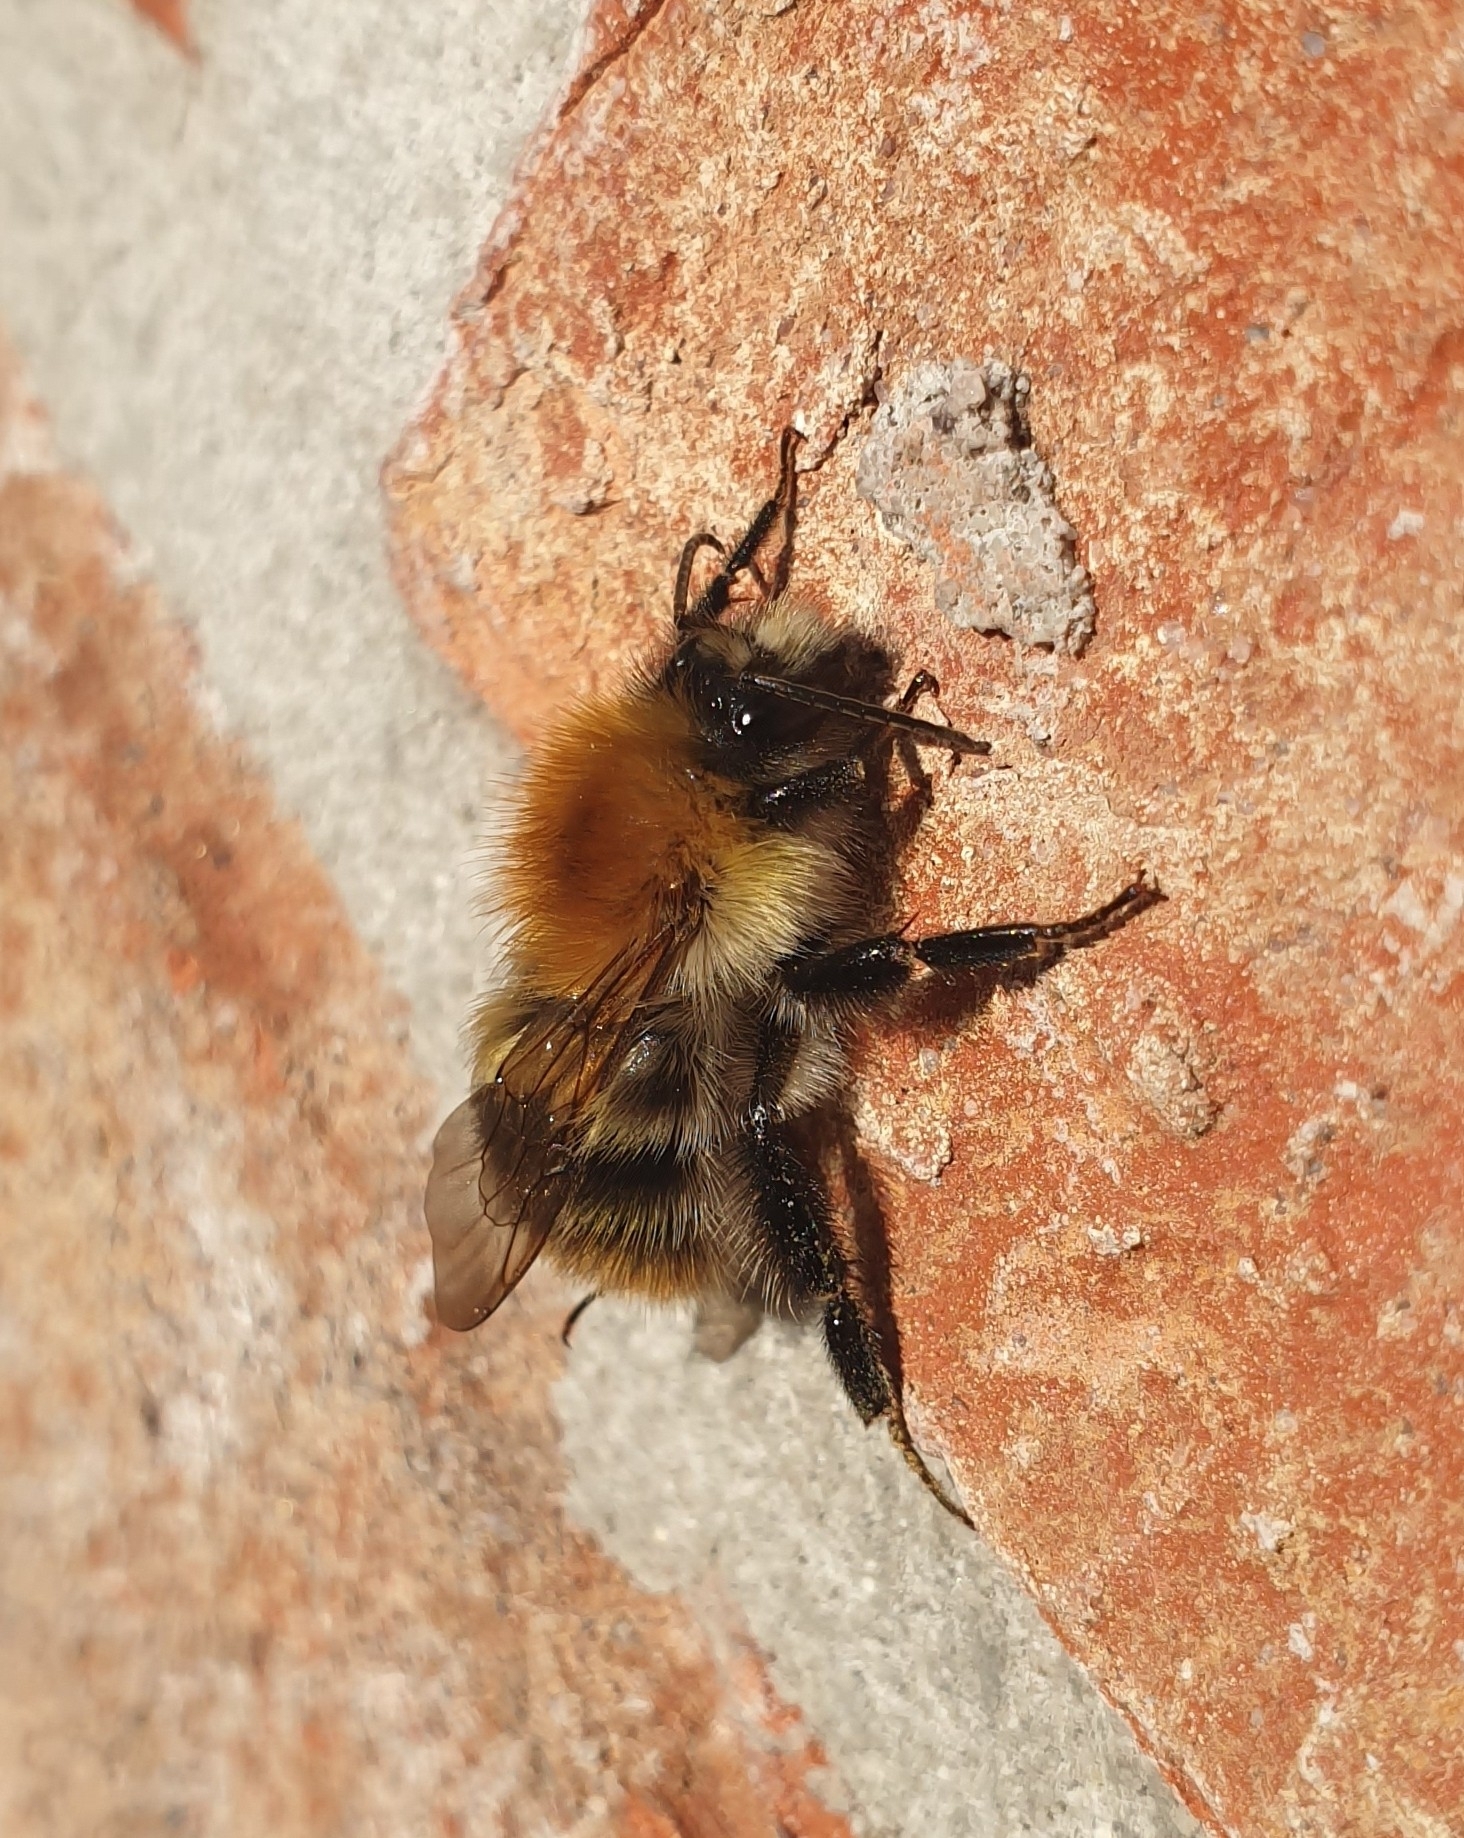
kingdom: Animalia
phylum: Arthropoda
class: Insecta
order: Hymenoptera
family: Apidae
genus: Bombus
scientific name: Bombus pascuorum
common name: Common carder bee
